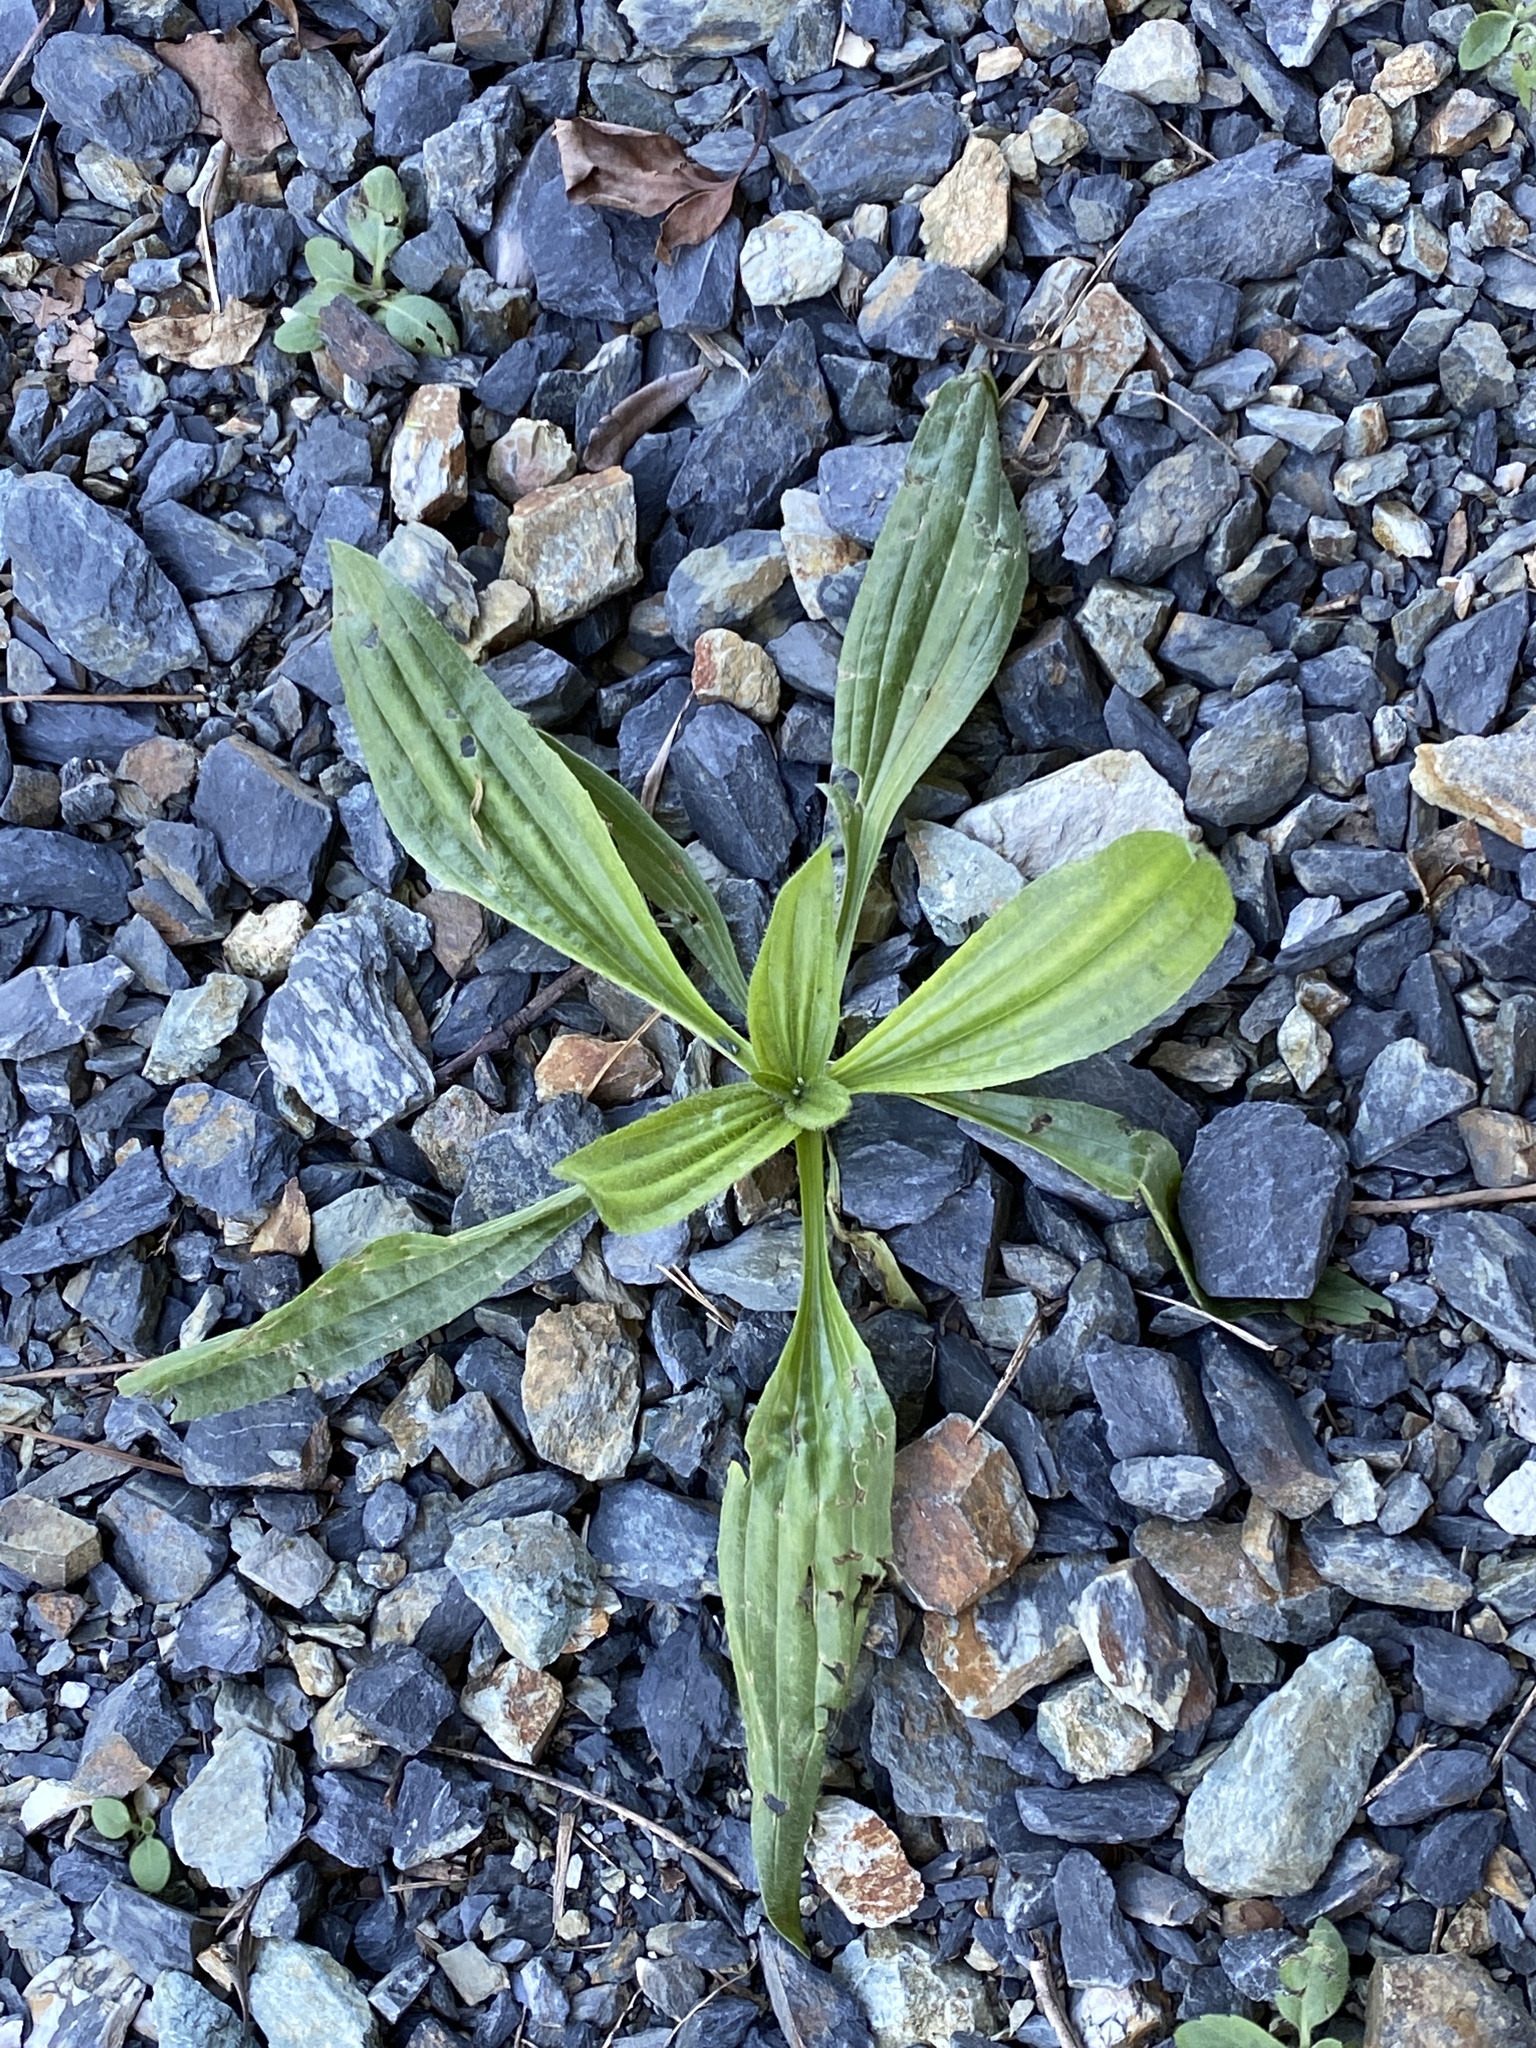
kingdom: Plantae
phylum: Tracheophyta
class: Magnoliopsida
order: Lamiales
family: Plantaginaceae
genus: Plantago
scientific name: Plantago lanceolata
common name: Ribwort plantain
